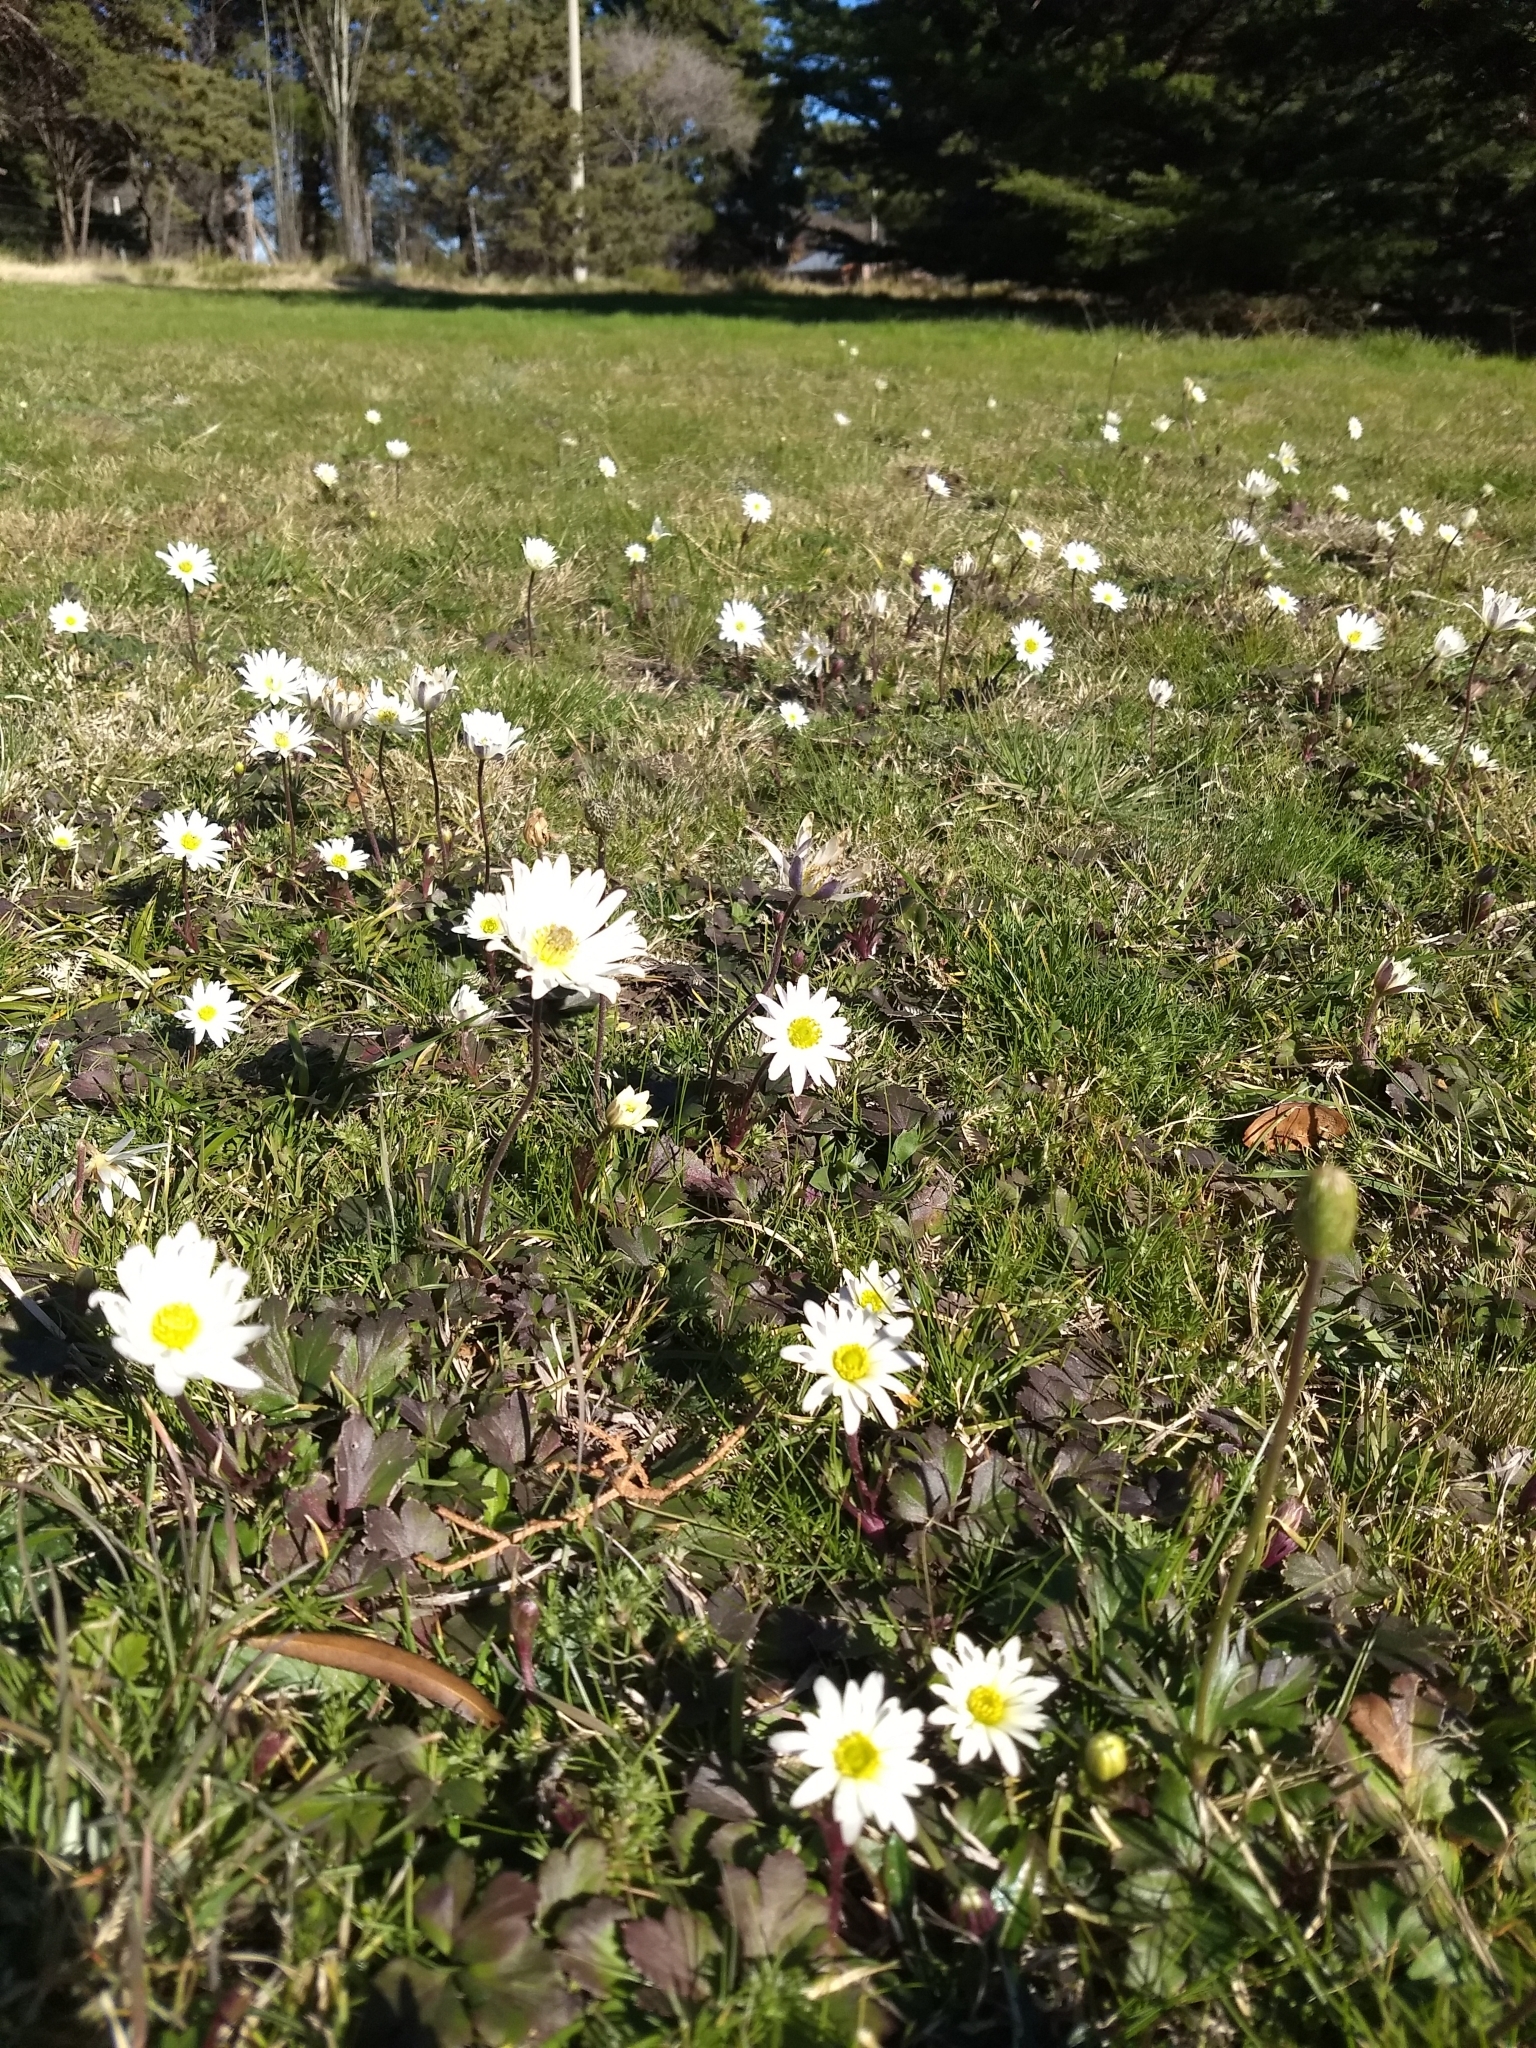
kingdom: Plantae
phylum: Tracheophyta
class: Magnoliopsida
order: Ranunculales
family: Ranunculaceae
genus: Anemone
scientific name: Anemone decapetala
